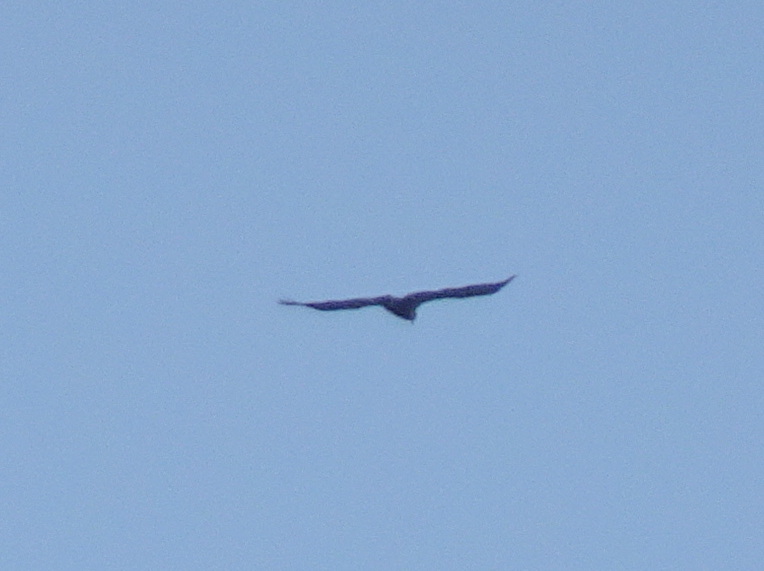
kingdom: Animalia
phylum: Chordata
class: Aves
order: Accipitriformes
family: Accipitridae
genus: Haliaeetus
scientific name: Haliaeetus leucocephalus
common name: Bald eagle
